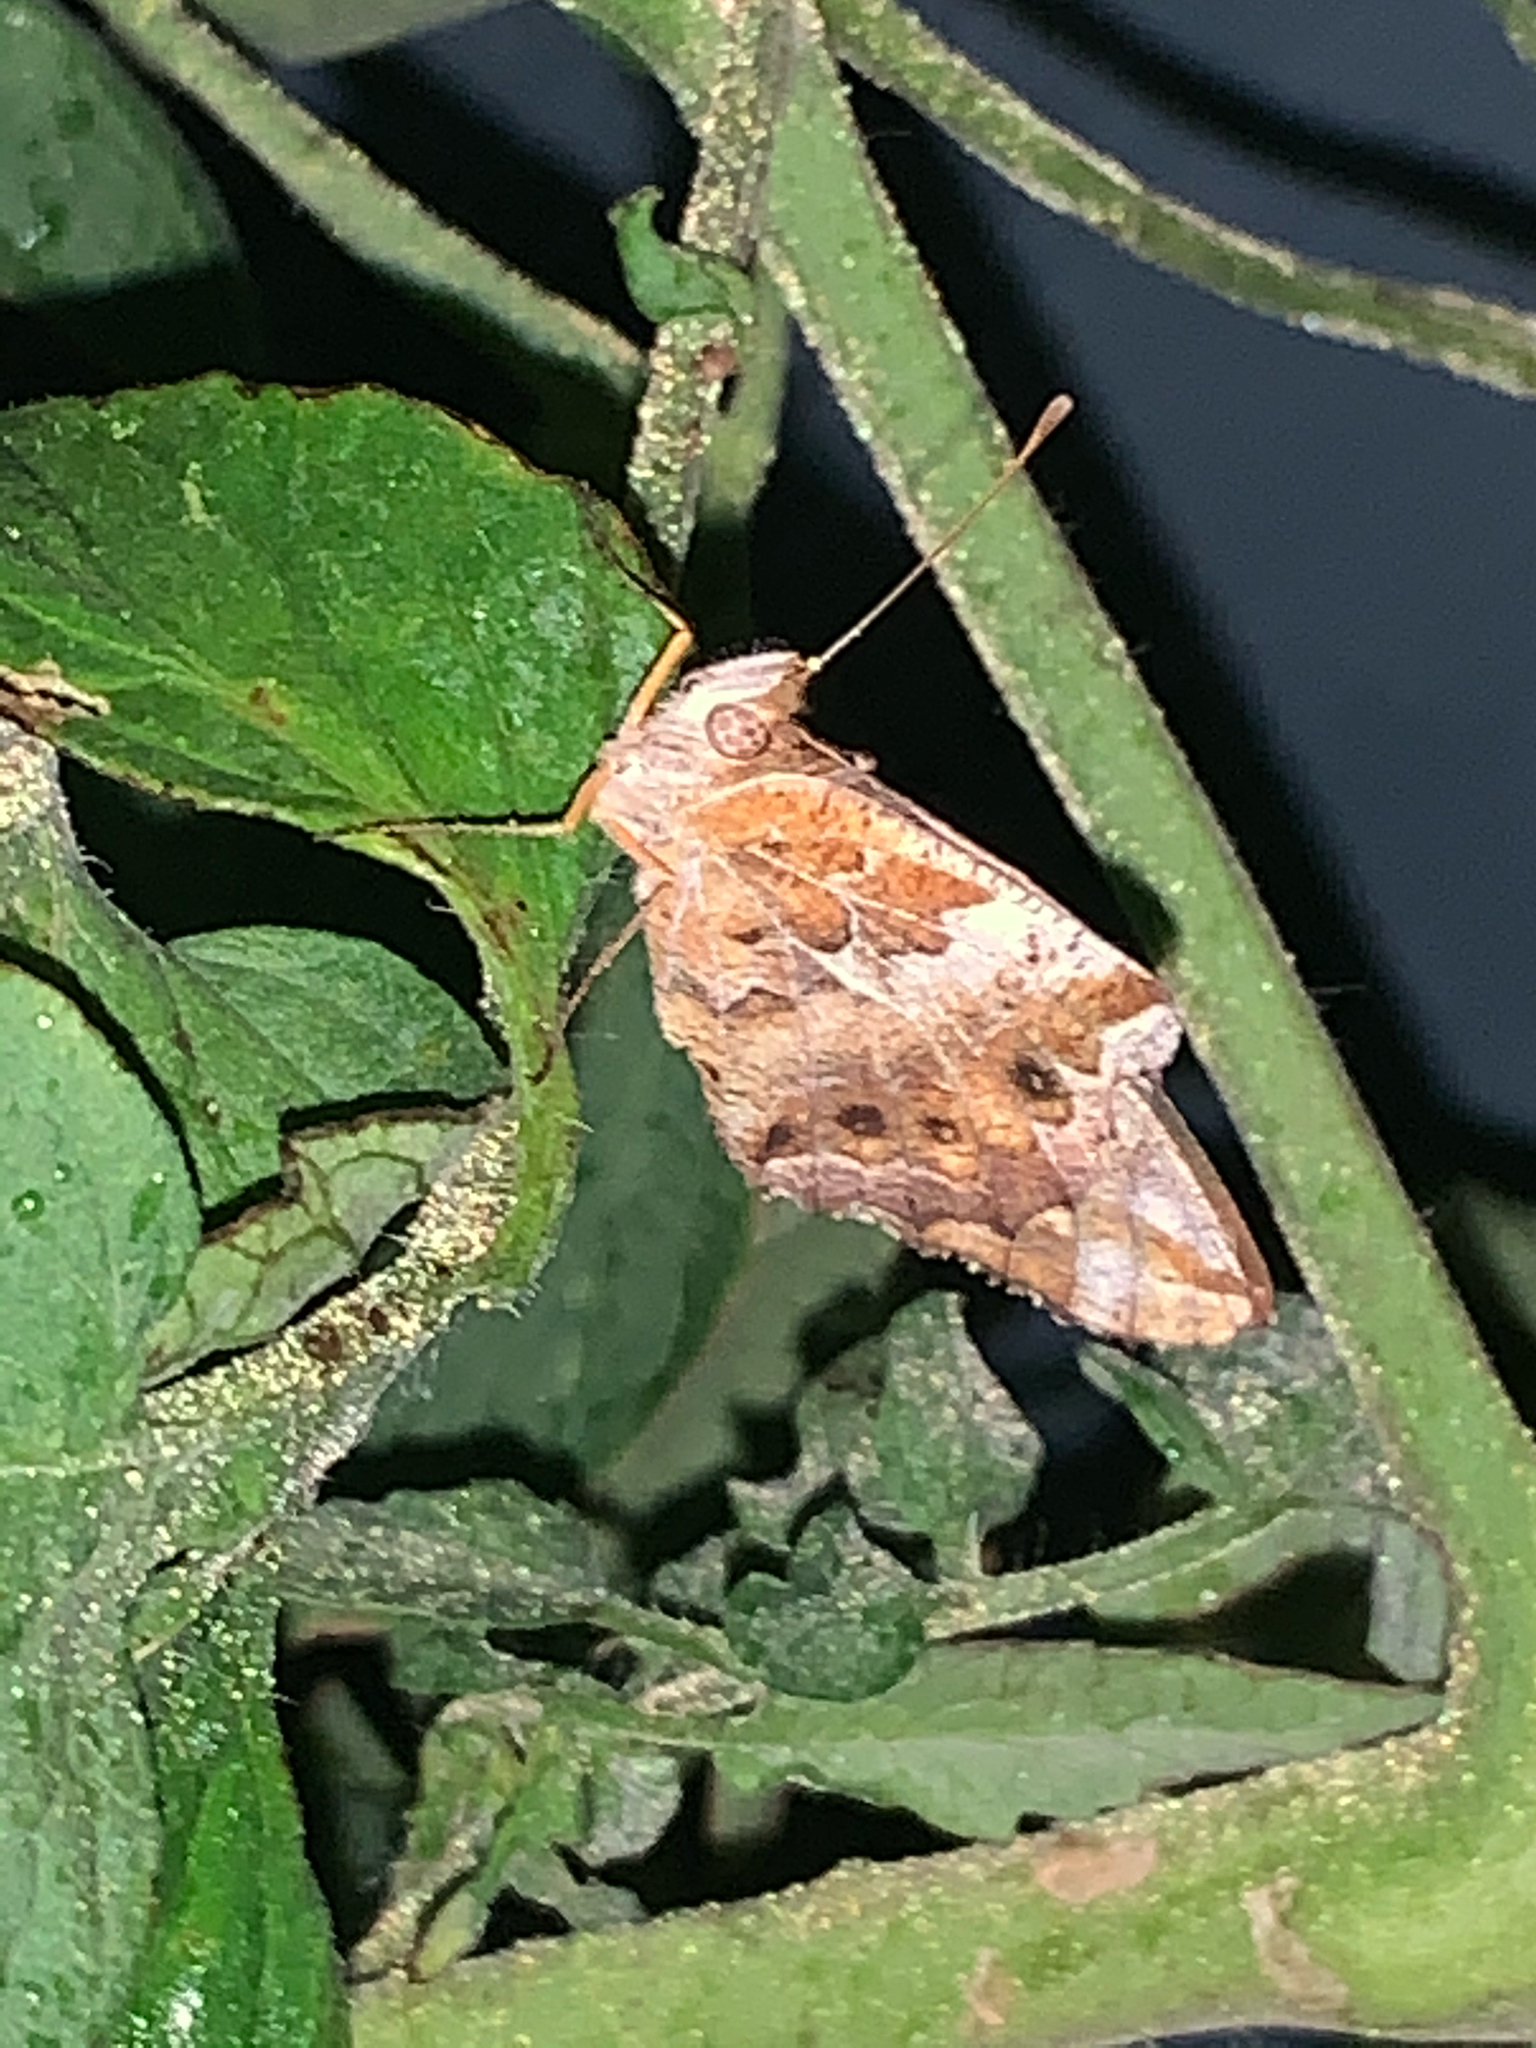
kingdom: Animalia
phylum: Arthropoda
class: Insecta
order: Lepidoptera
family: Nymphalidae
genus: Euptoieta
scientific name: Euptoieta claudia
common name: Variegated fritillary
